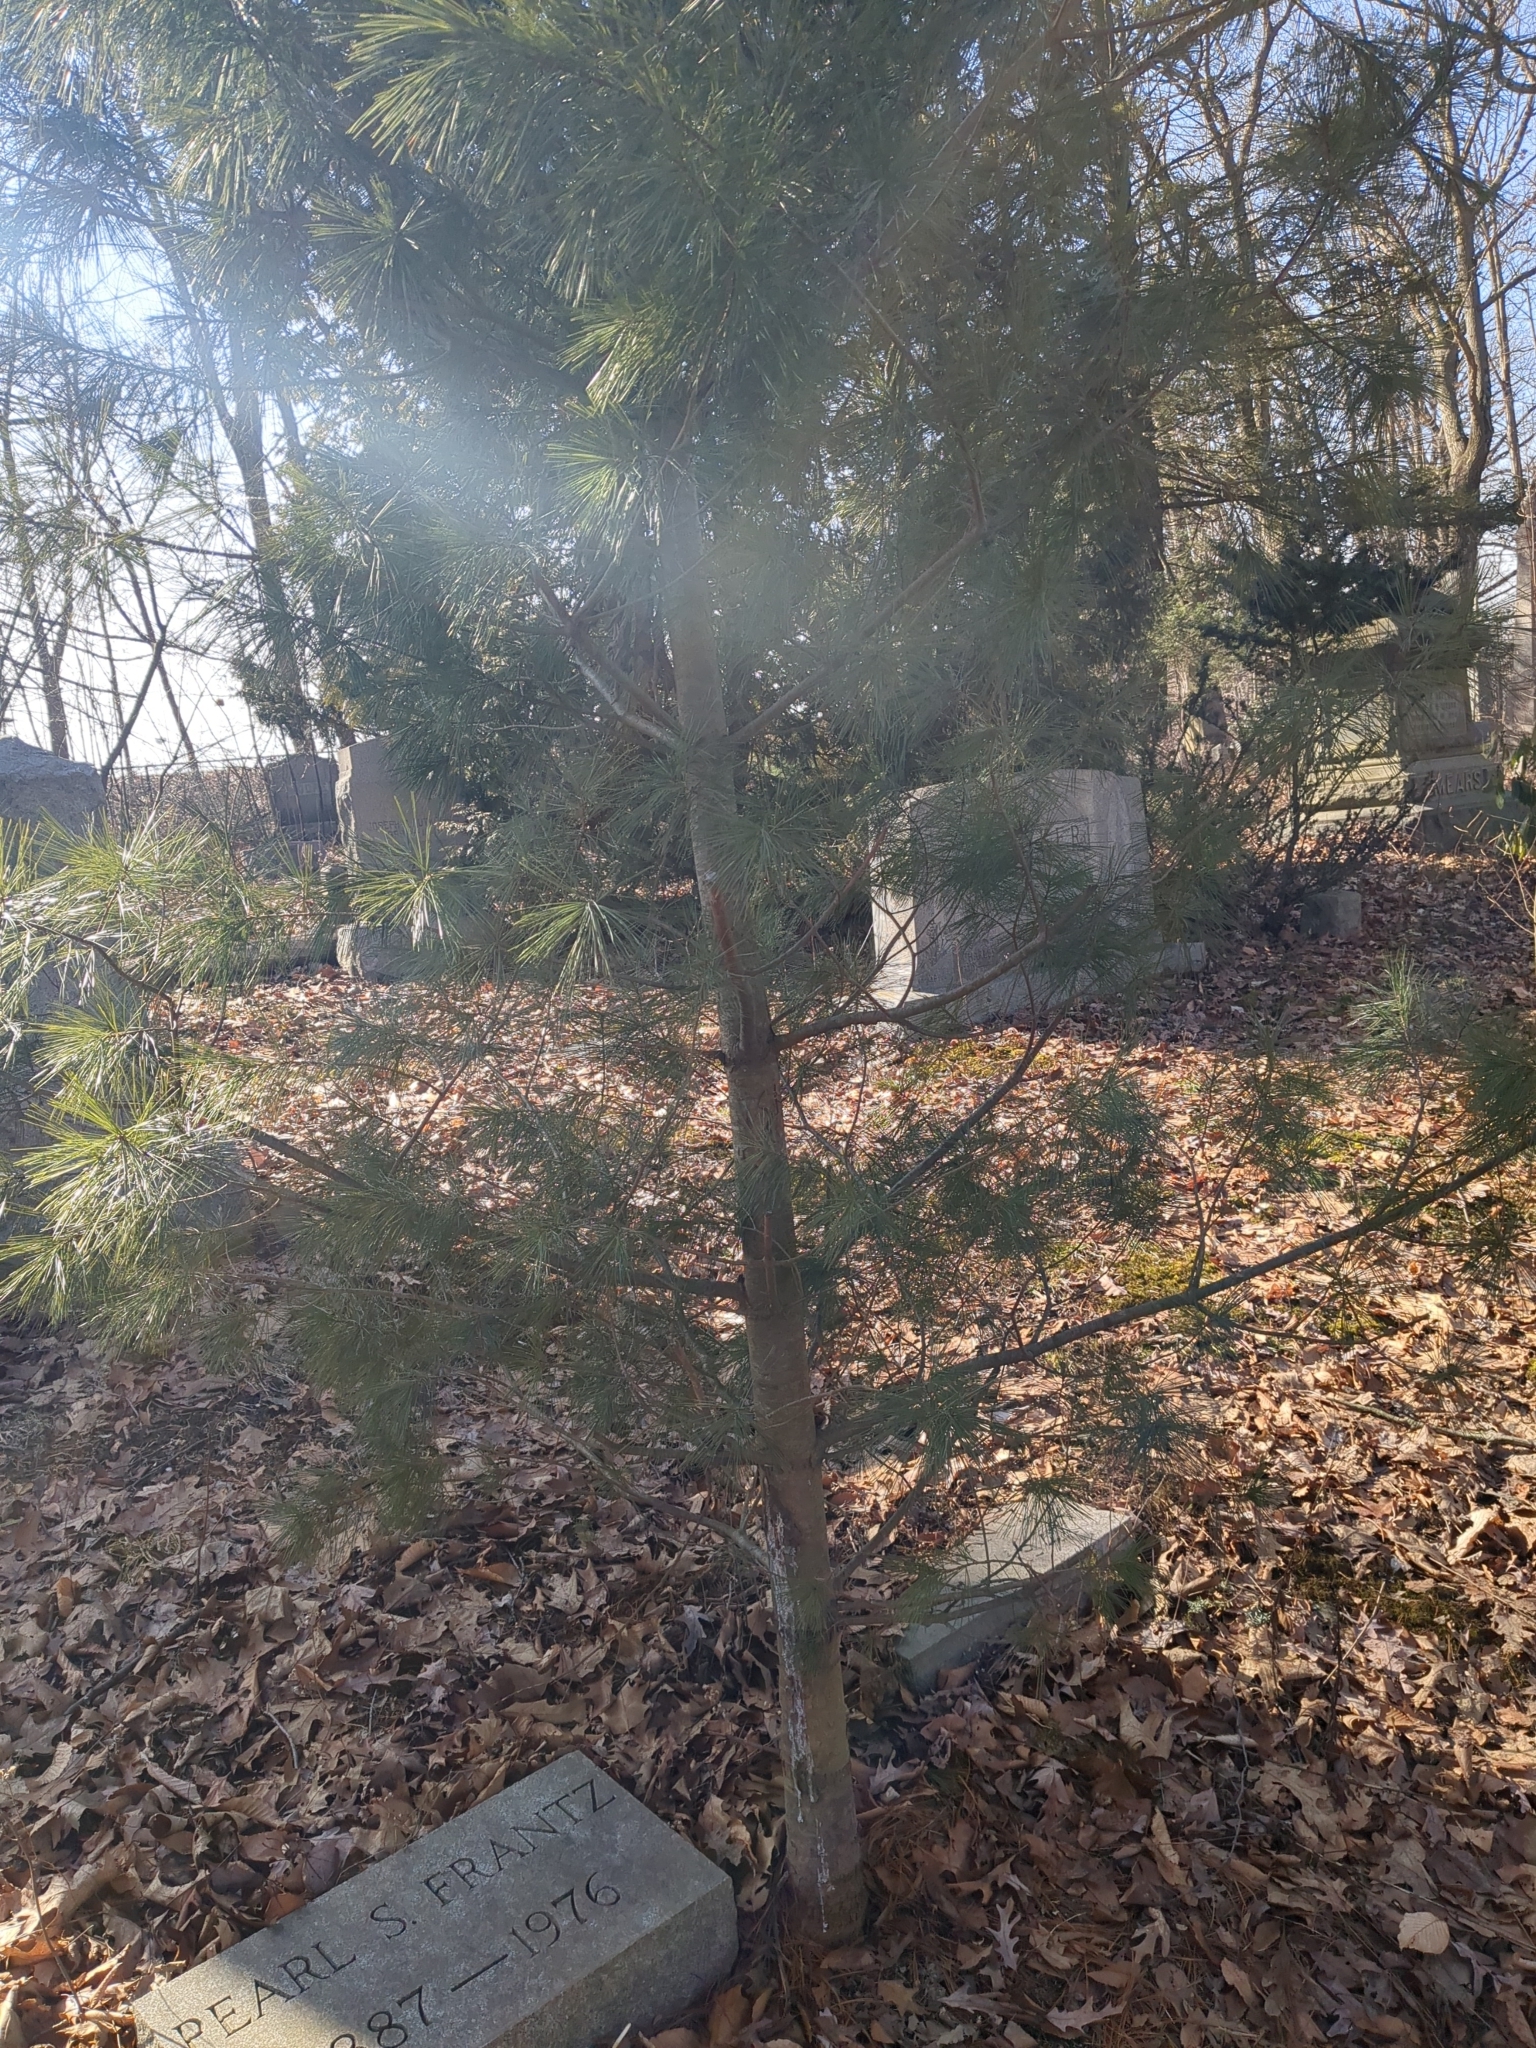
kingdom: Plantae
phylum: Tracheophyta
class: Pinopsida
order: Pinales
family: Pinaceae
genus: Pinus
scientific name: Pinus strobus
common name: Weymouth pine
